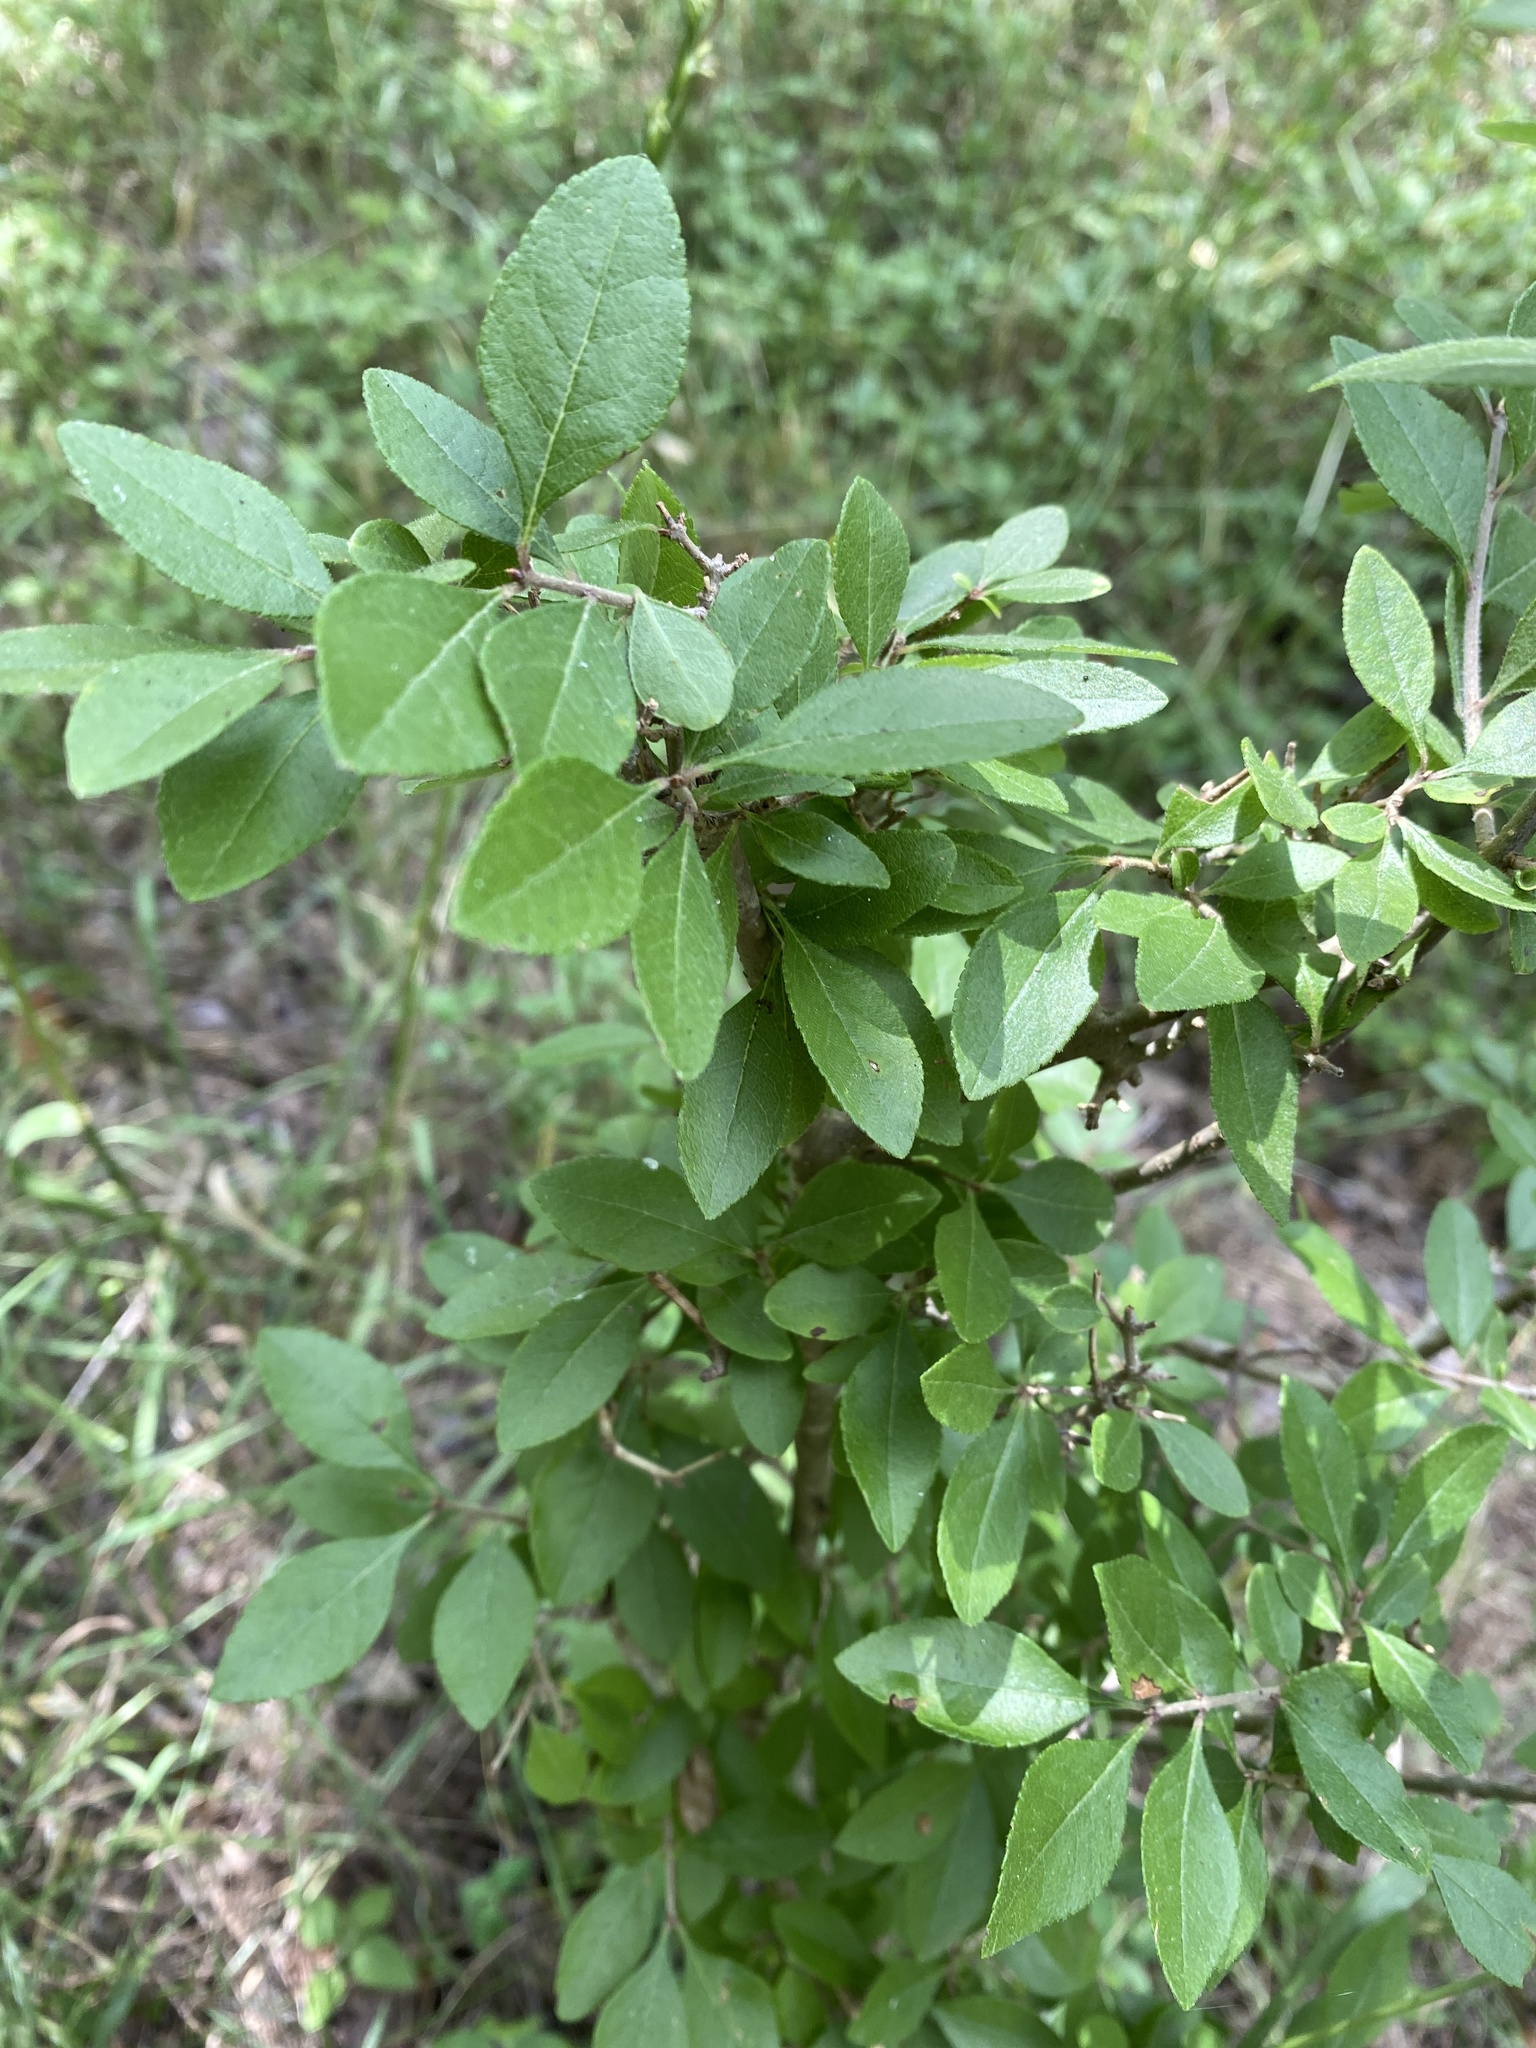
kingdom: Plantae
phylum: Tracheophyta
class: Magnoliopsida
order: Lamiales
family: Oleaceae
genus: Forestiera
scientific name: Forestiera pubescens
